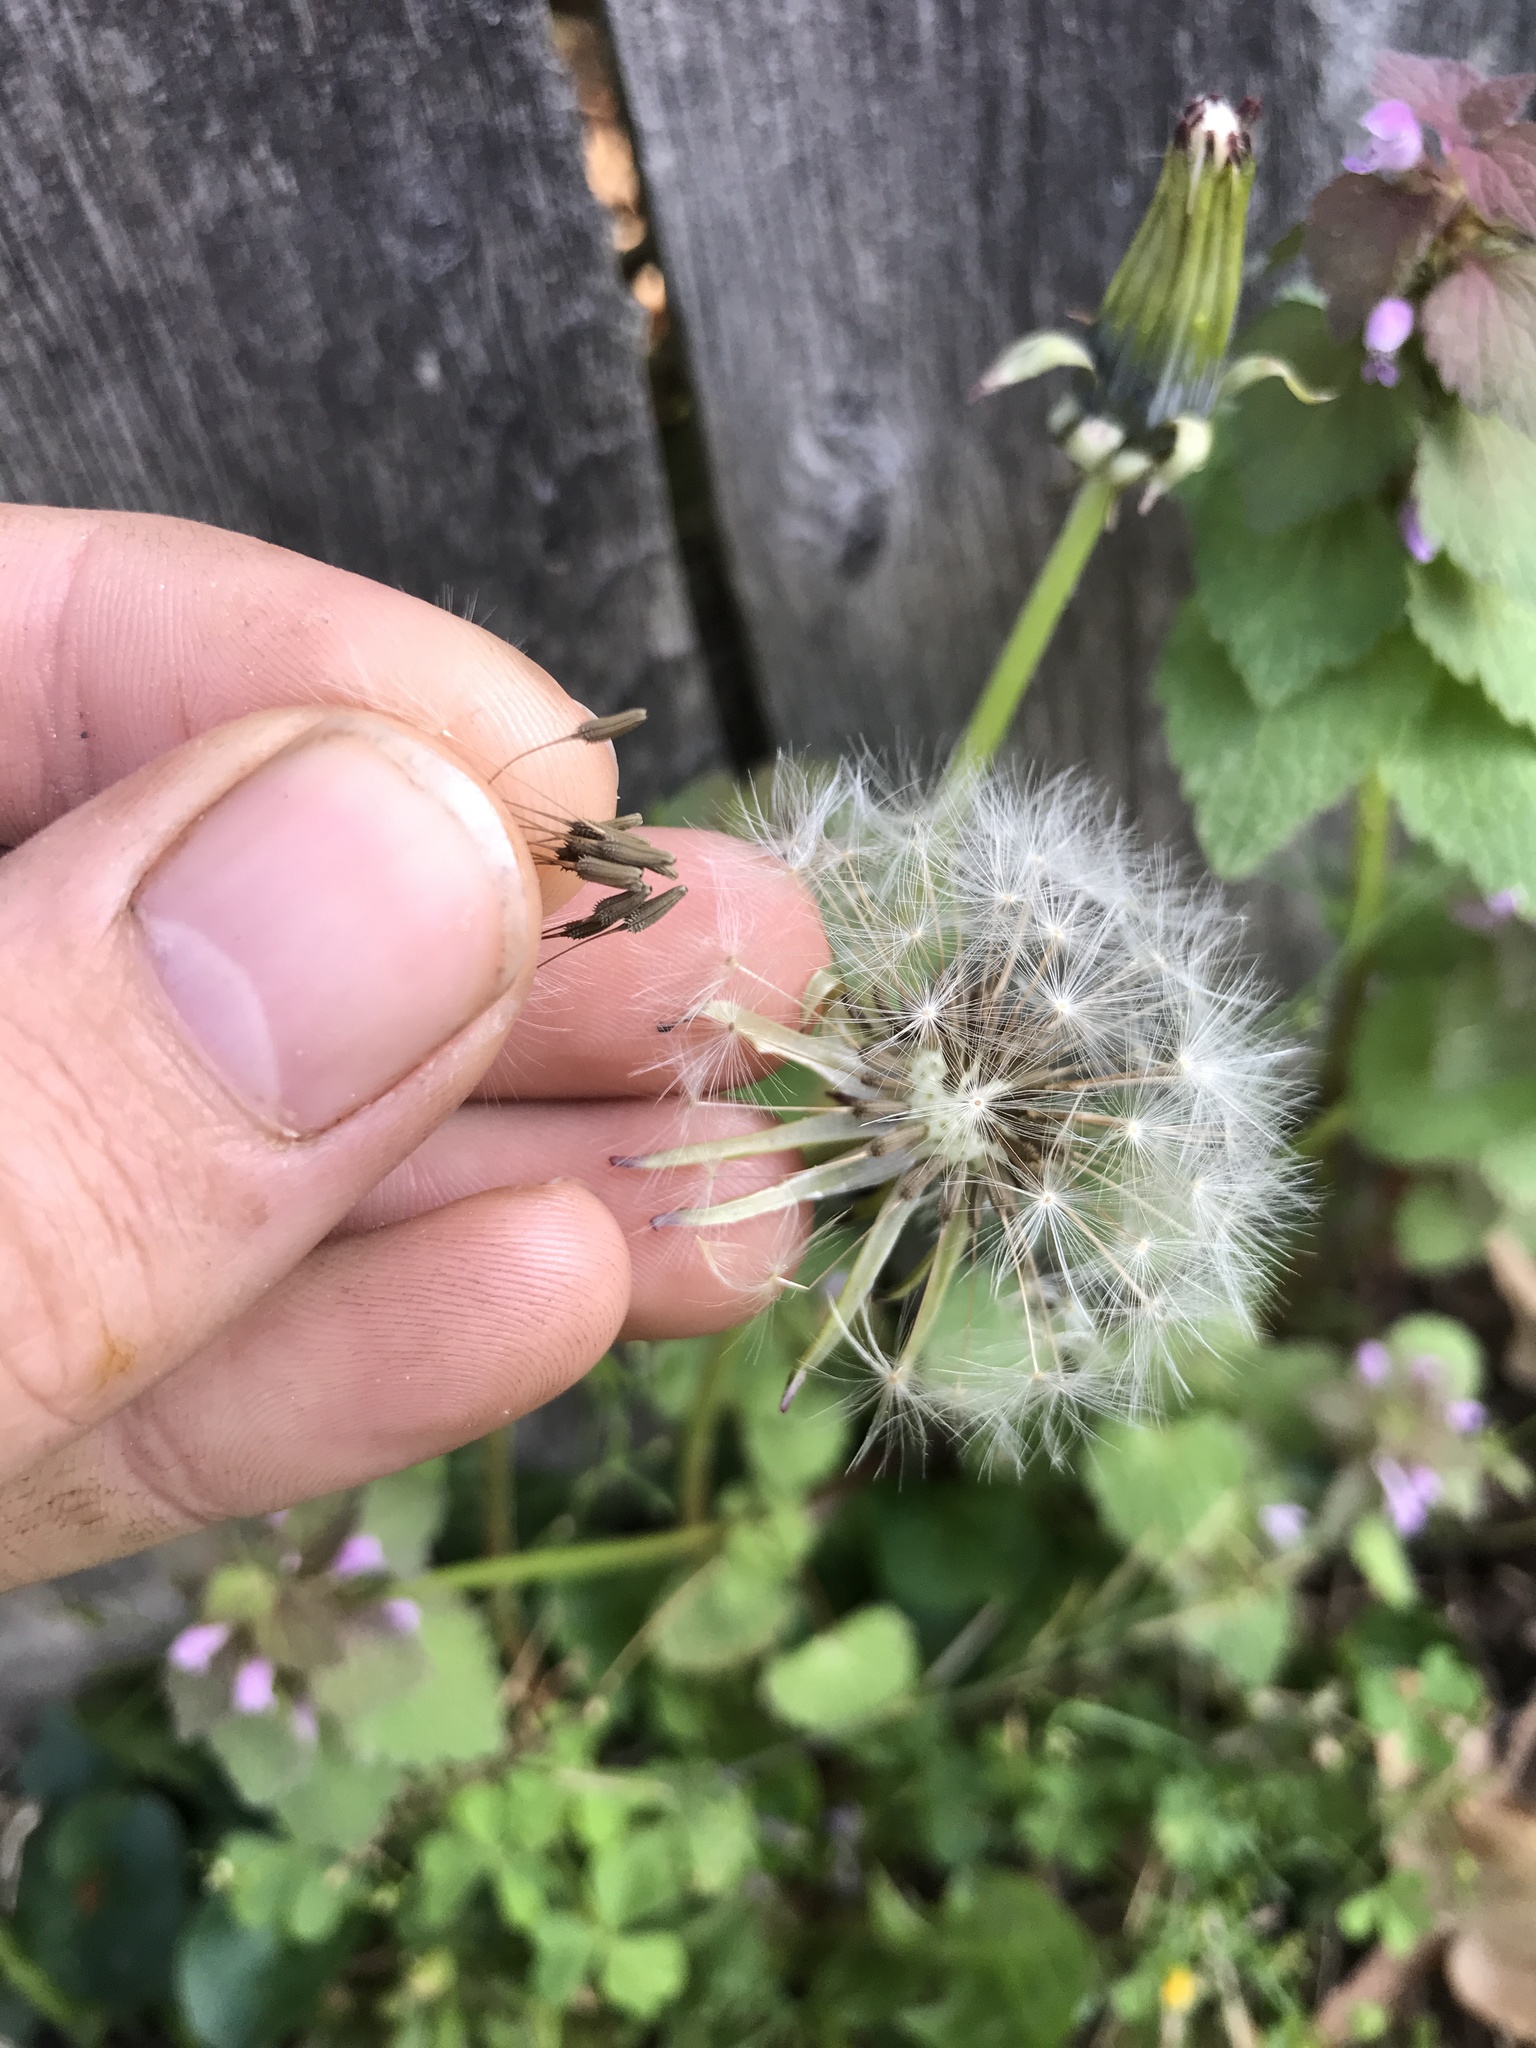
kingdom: Plantae
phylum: Tracheophyta
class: Magnoliopsida
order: Asterales
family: Asteraceae
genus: Taraxacum
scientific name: Taraxacum officinale
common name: Common dandelion
